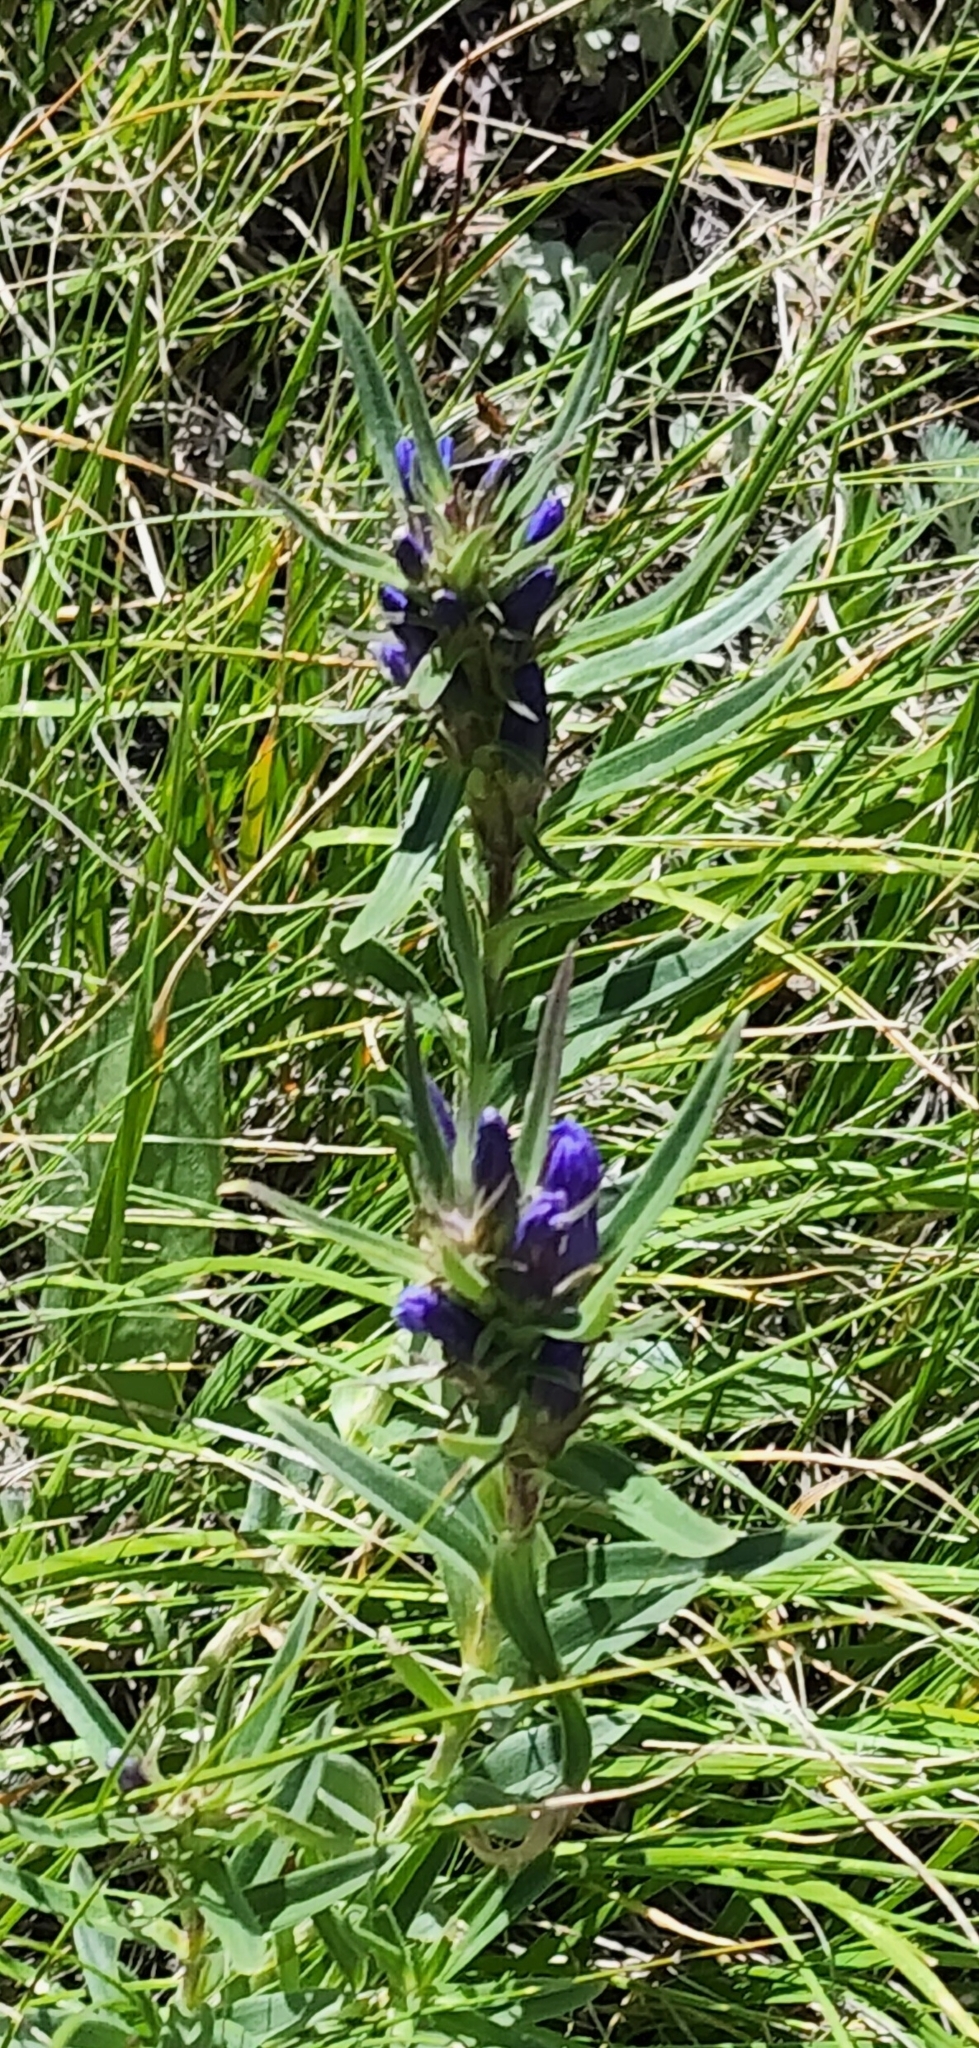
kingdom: Plantae
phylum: Tracheophyta
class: Magnoliopsida
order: Gentianales
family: Gentianaceae
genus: Gentiana
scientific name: Gentiana affinis
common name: Rocky mountain gentian
